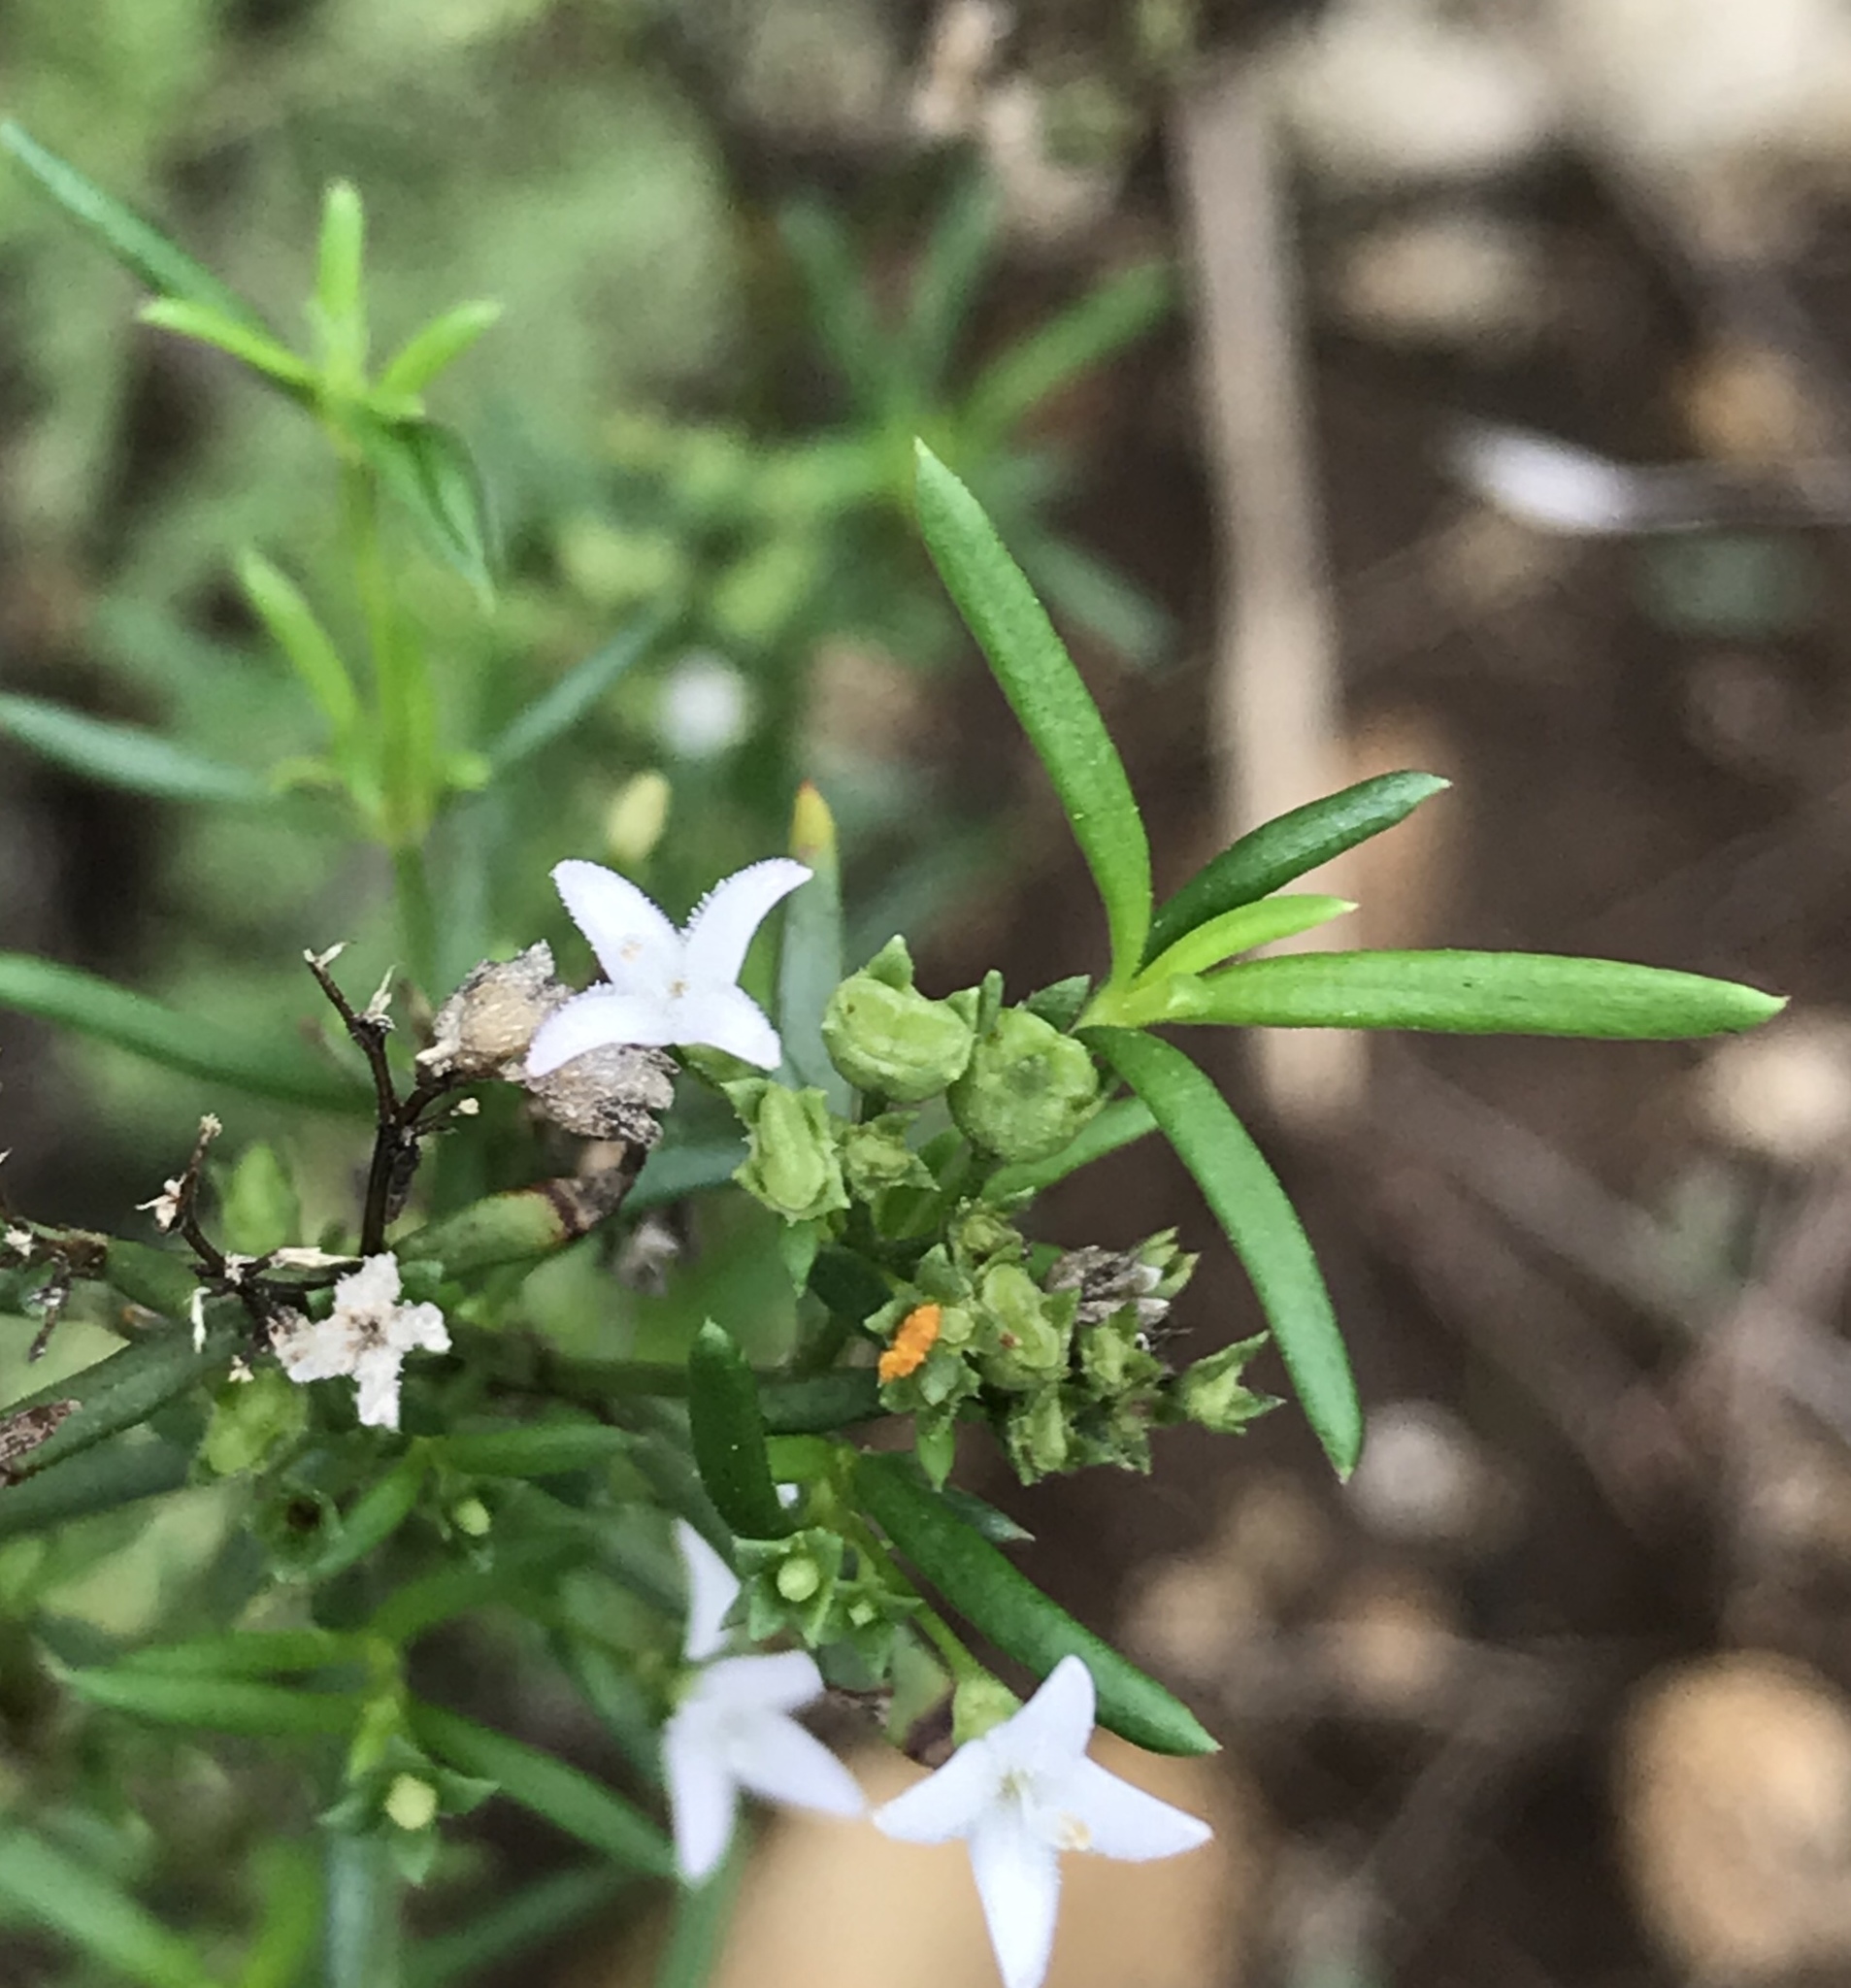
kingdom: Plantae
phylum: Tracheophyta
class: Magnoliopsida
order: Gentianales
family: Rubiaceae
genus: Stenaria
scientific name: Stenaria nigricans
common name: Diamondflowers
